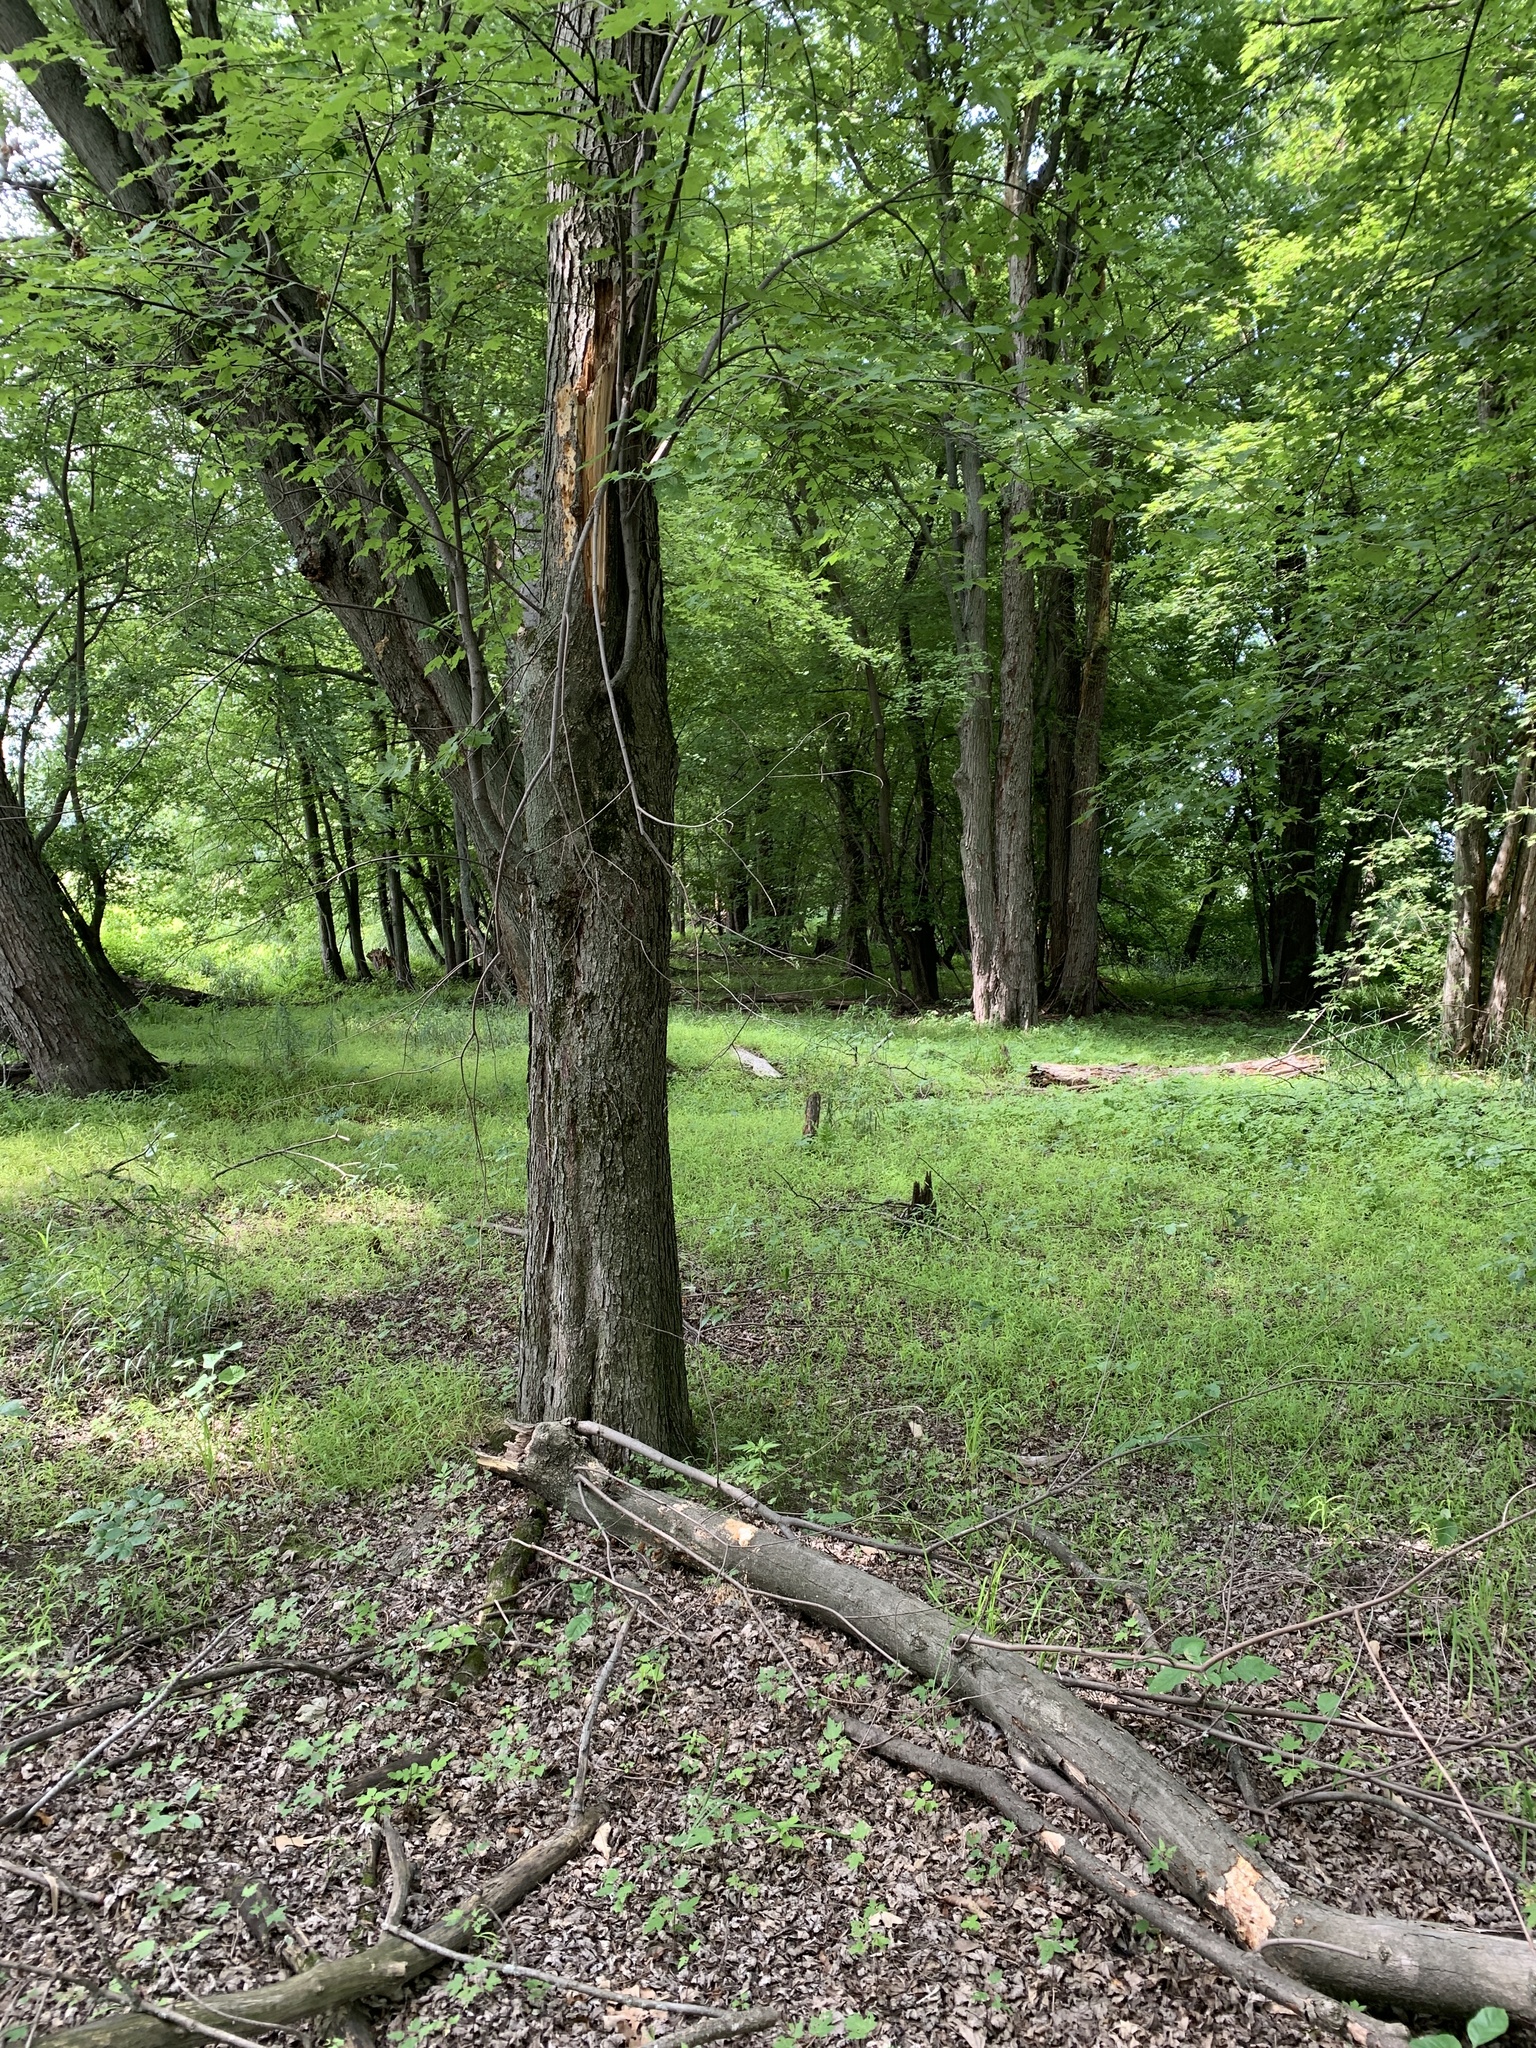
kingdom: Plantae
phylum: Tracheophyta
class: Magnoliopsida
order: Sapindales
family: Sapindaceae
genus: Acer
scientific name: Acer saccharinum
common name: Silver maple
